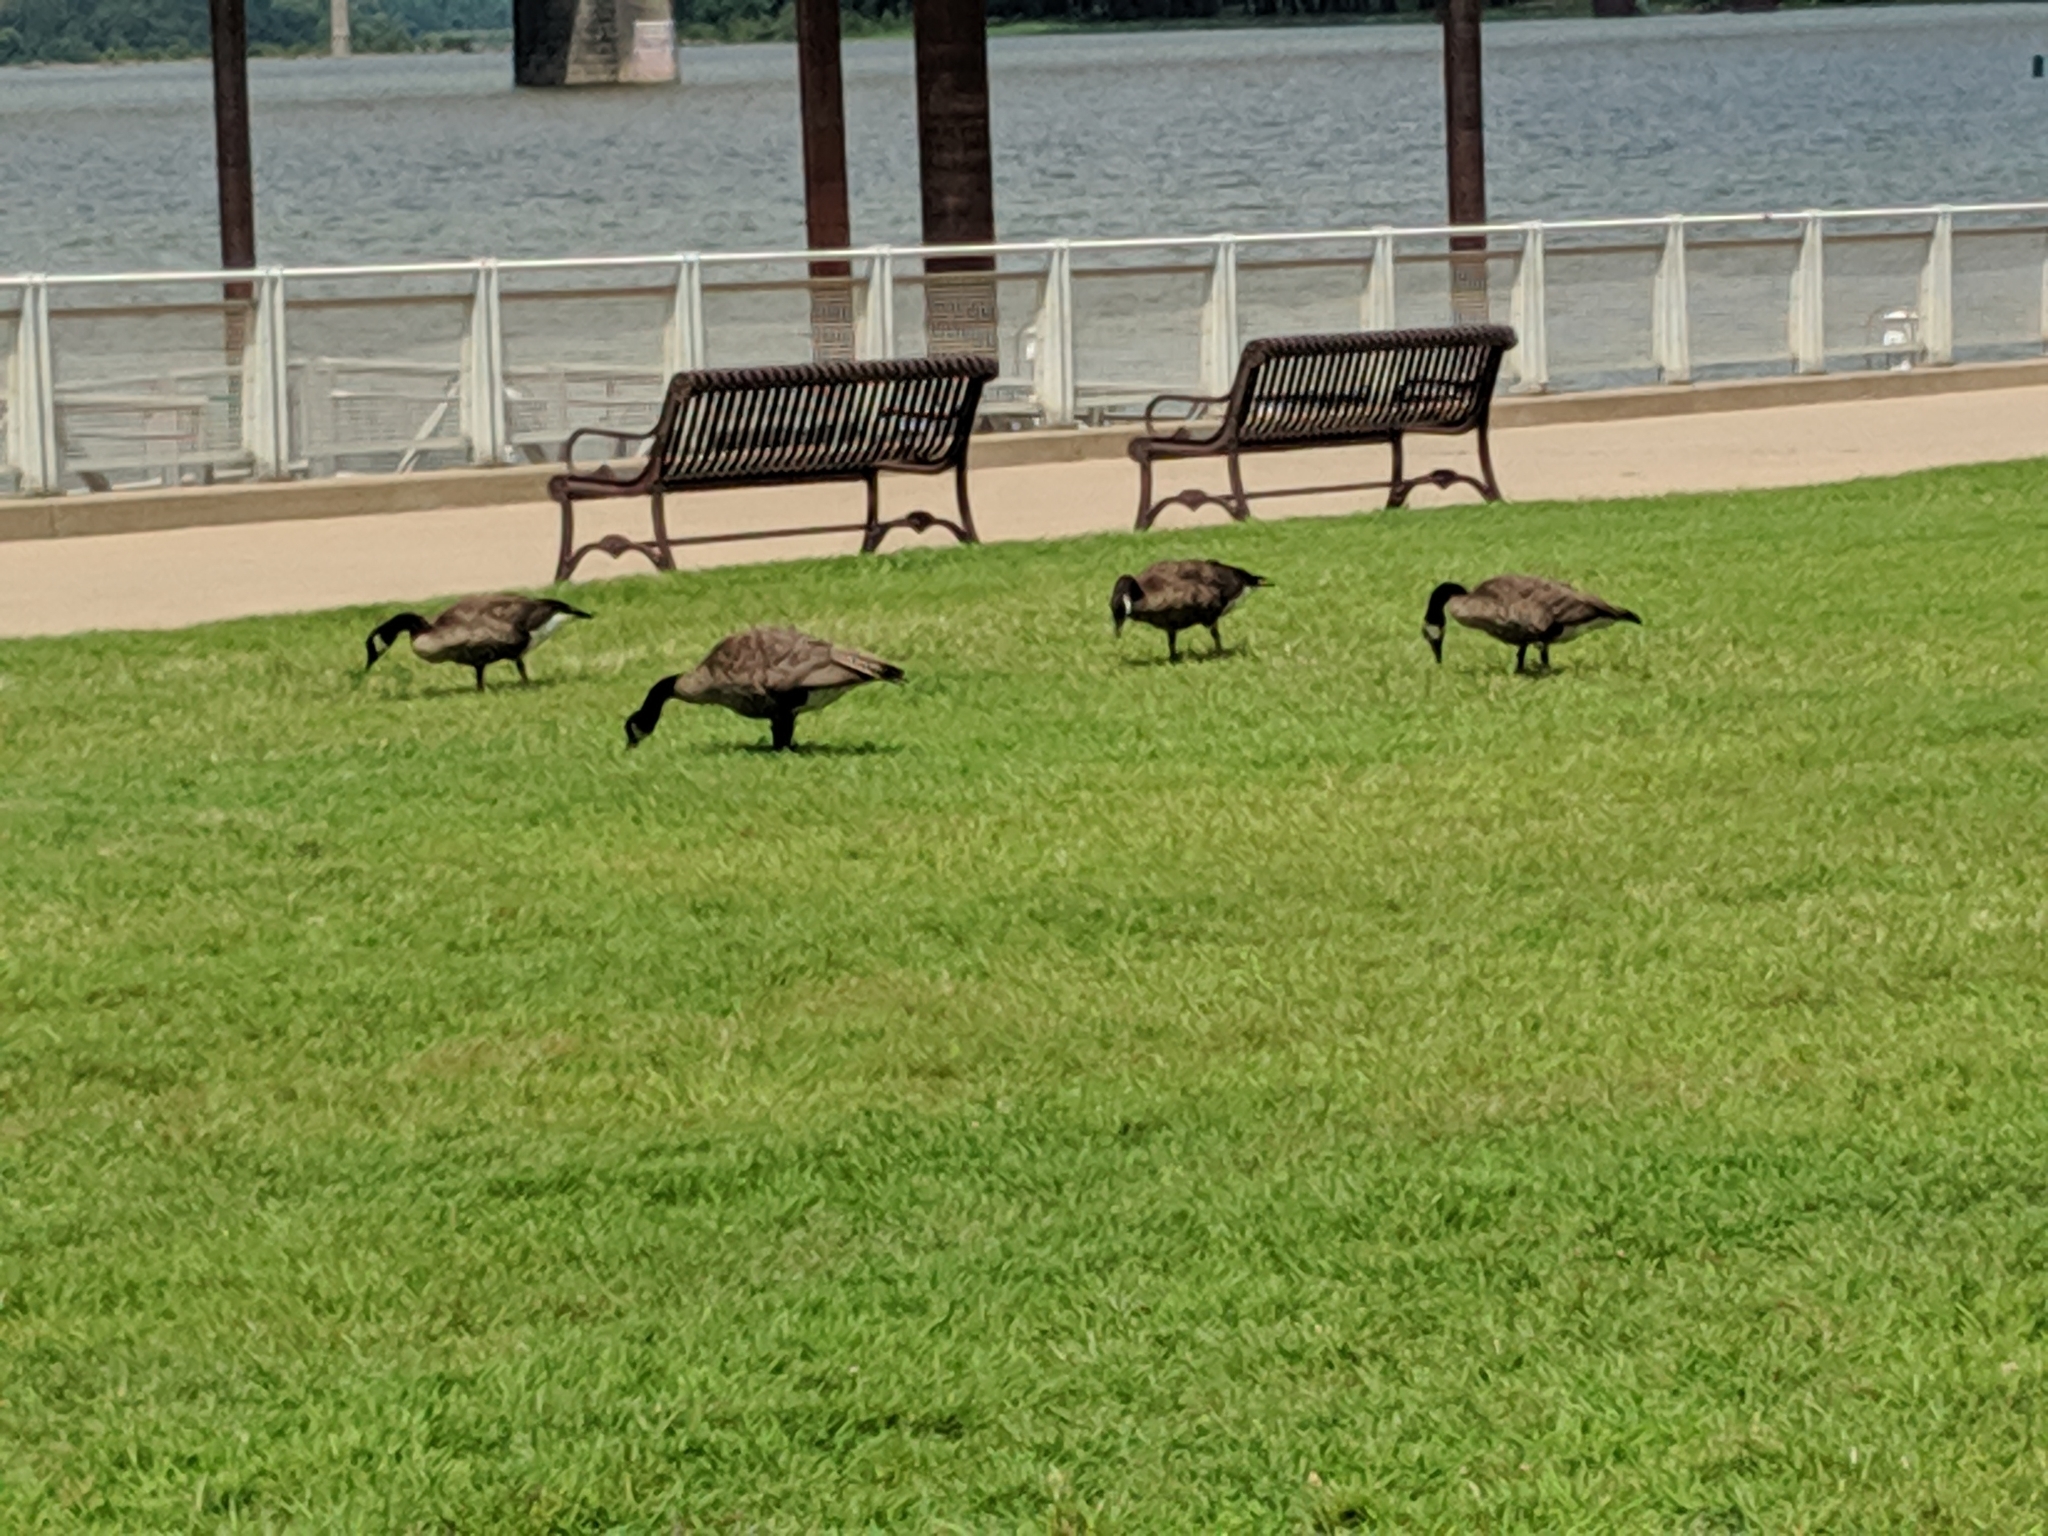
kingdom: Animalia
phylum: Chordata
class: Aves
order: Anseriformes
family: Anatidae
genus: Branta
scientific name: Branta canadensis
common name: Canada goose
